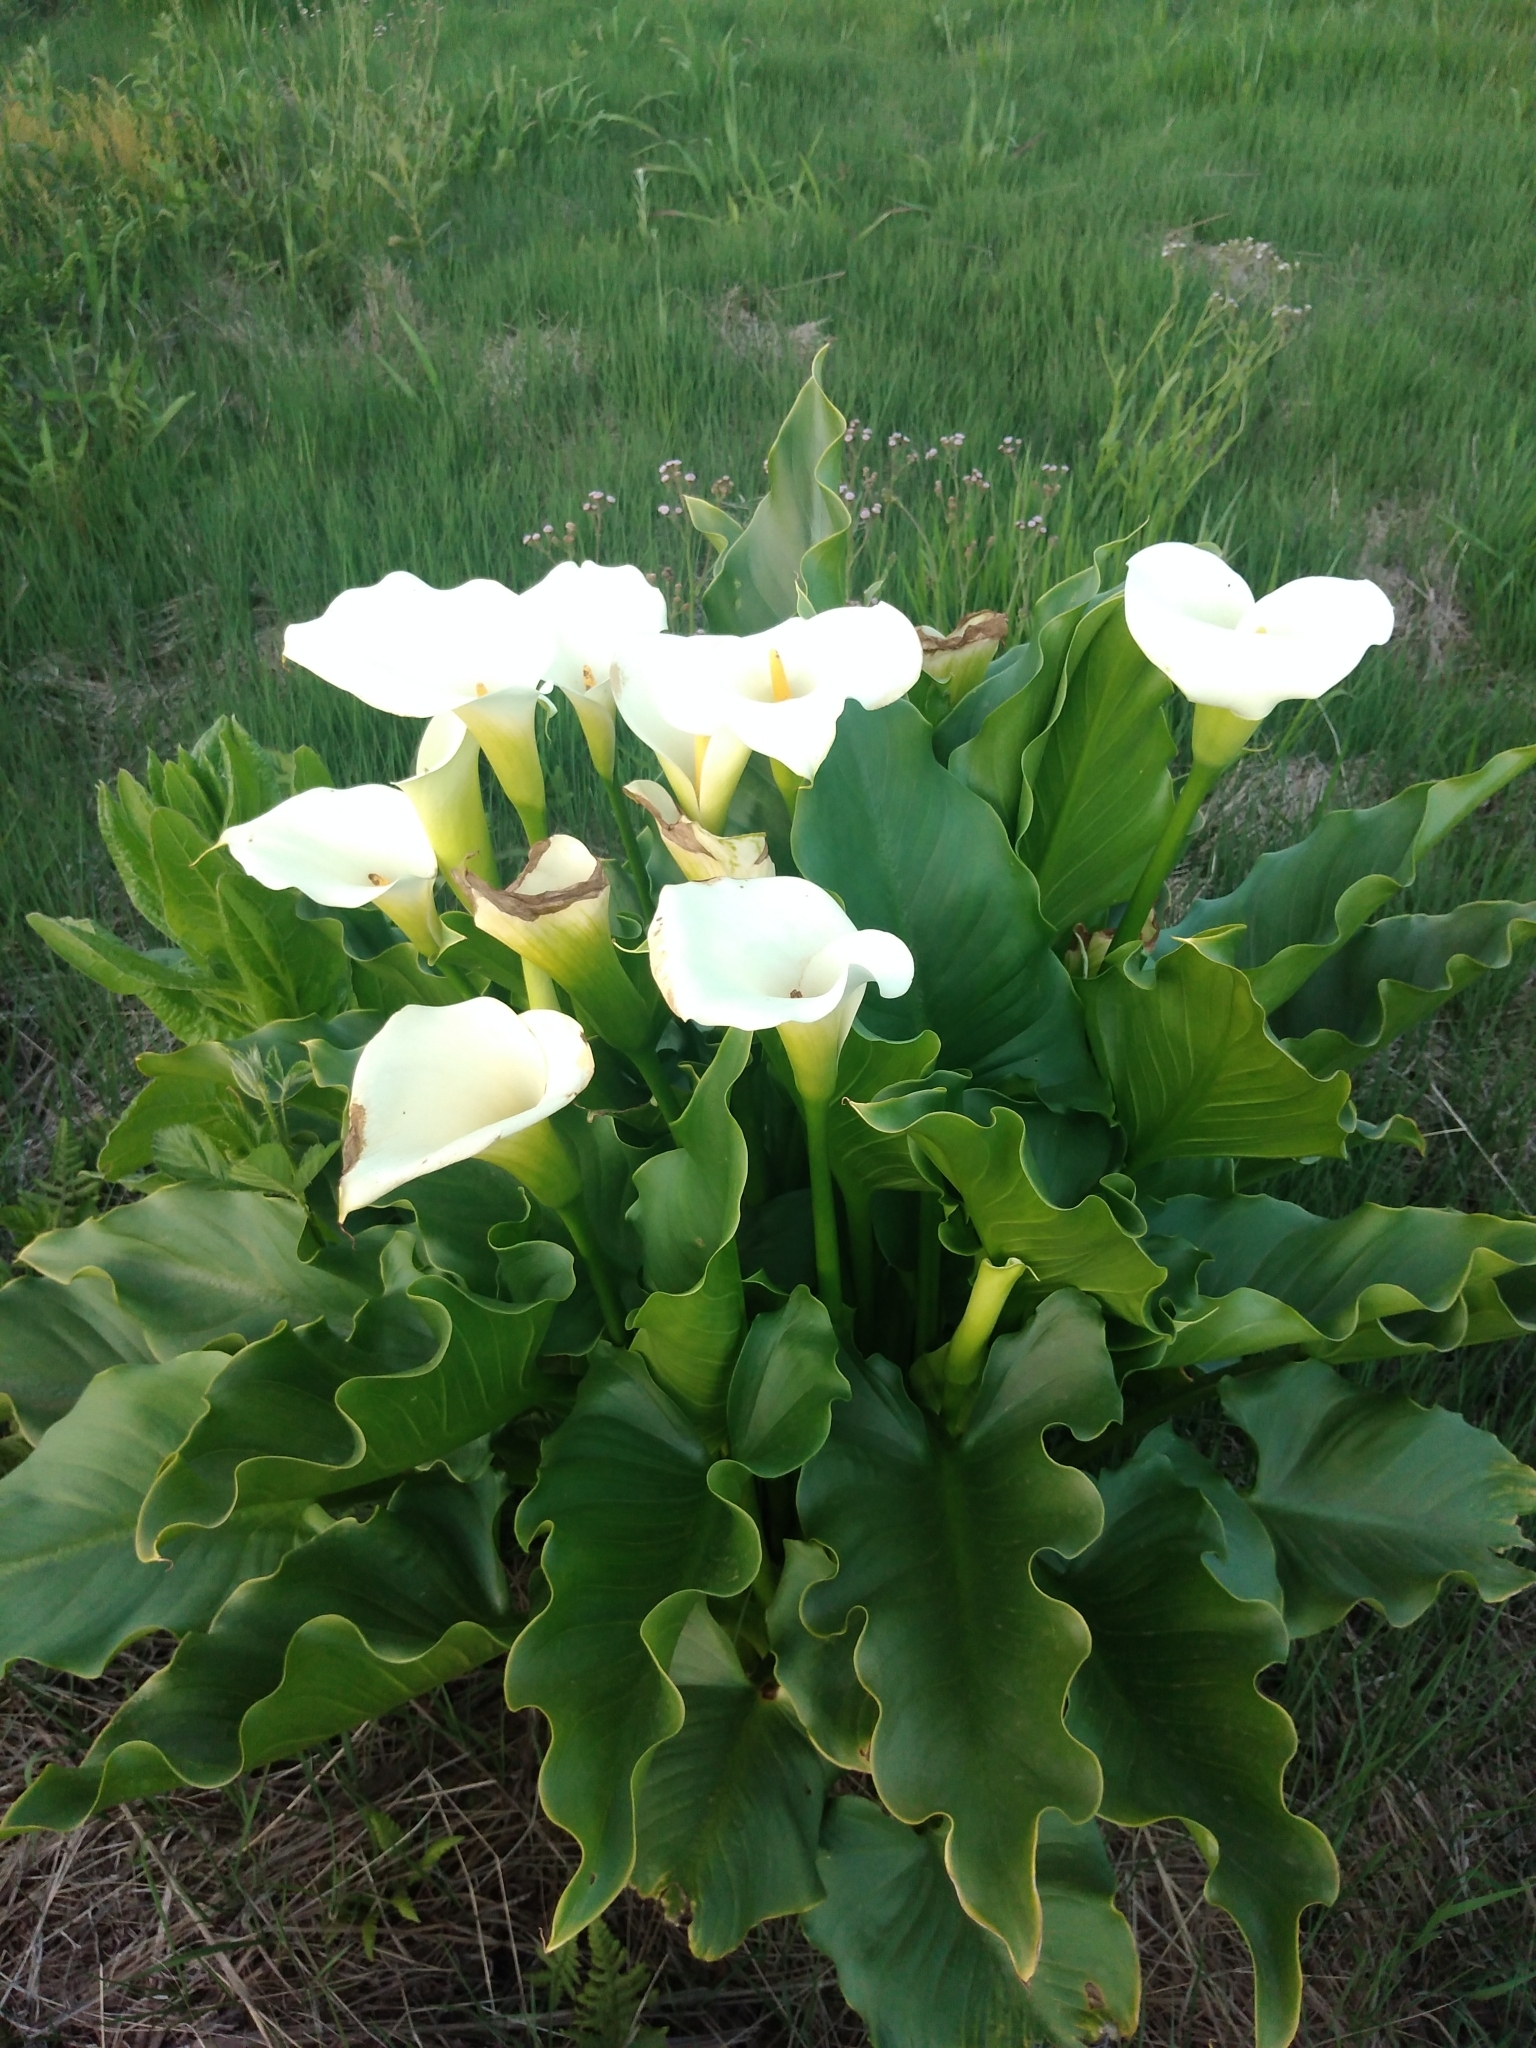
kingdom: Plantae
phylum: Tracheophyta
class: Liliopsida
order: Alismatales
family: Araceae
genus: Zantedeschia
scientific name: Zantedeschia aethiopica
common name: Altar-lily
